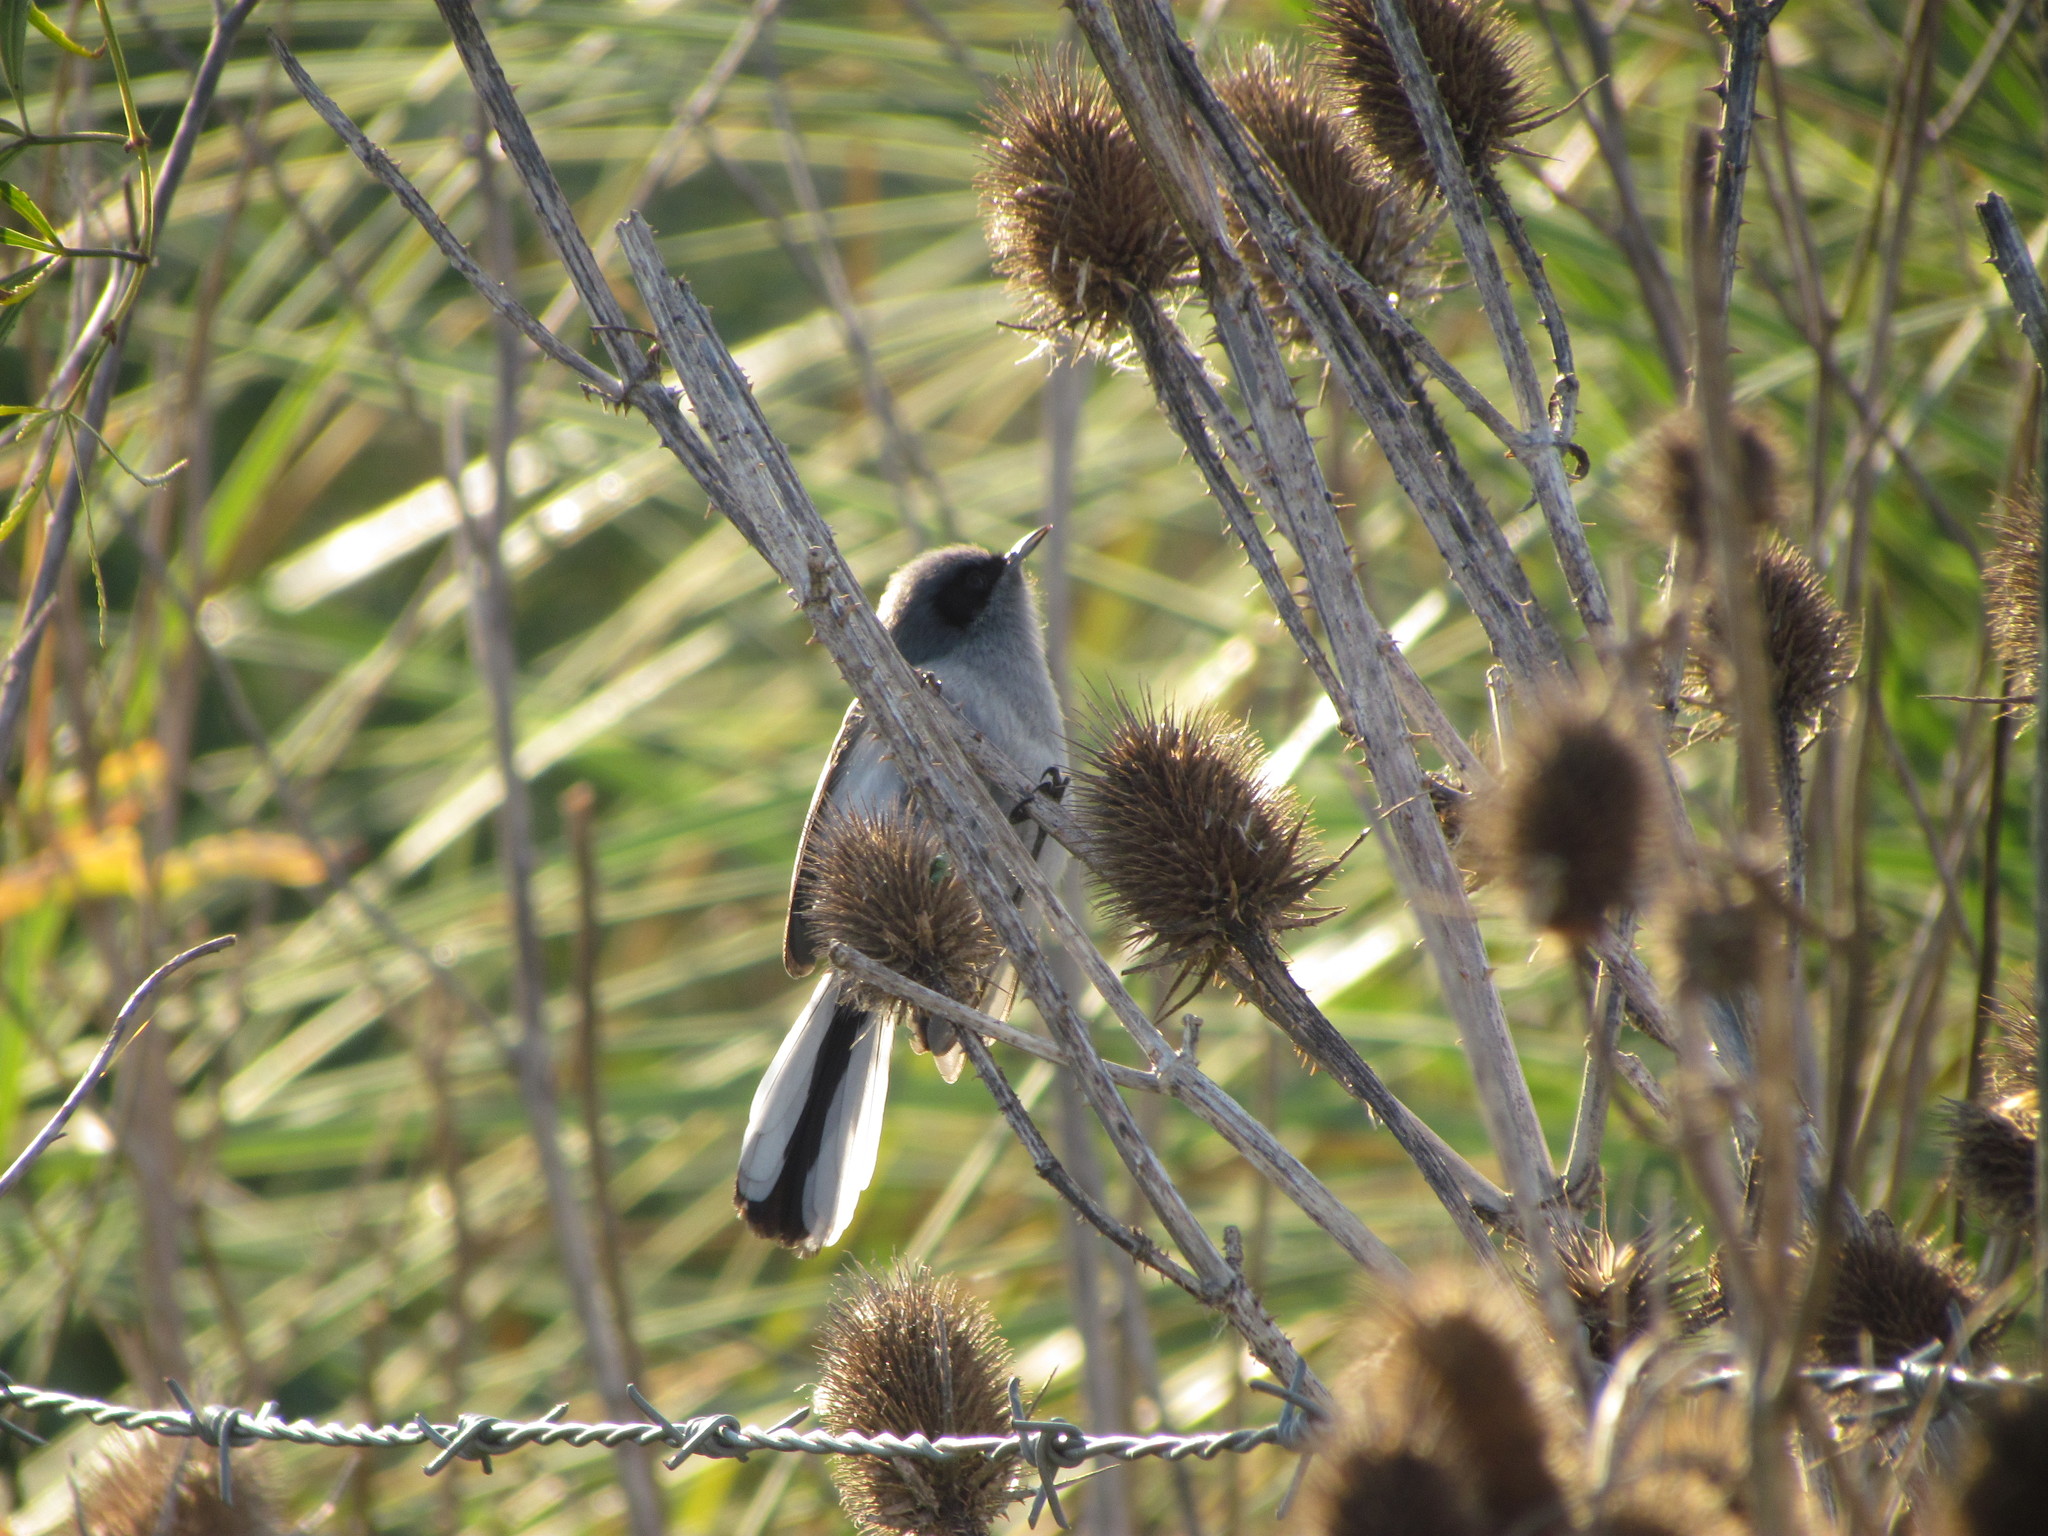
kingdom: Animalia
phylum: Chordata
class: Aves
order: Passeriformes
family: Polioptilidae
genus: Polioptila
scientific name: Polioptila dumicola
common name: Masked gnatcatcher
